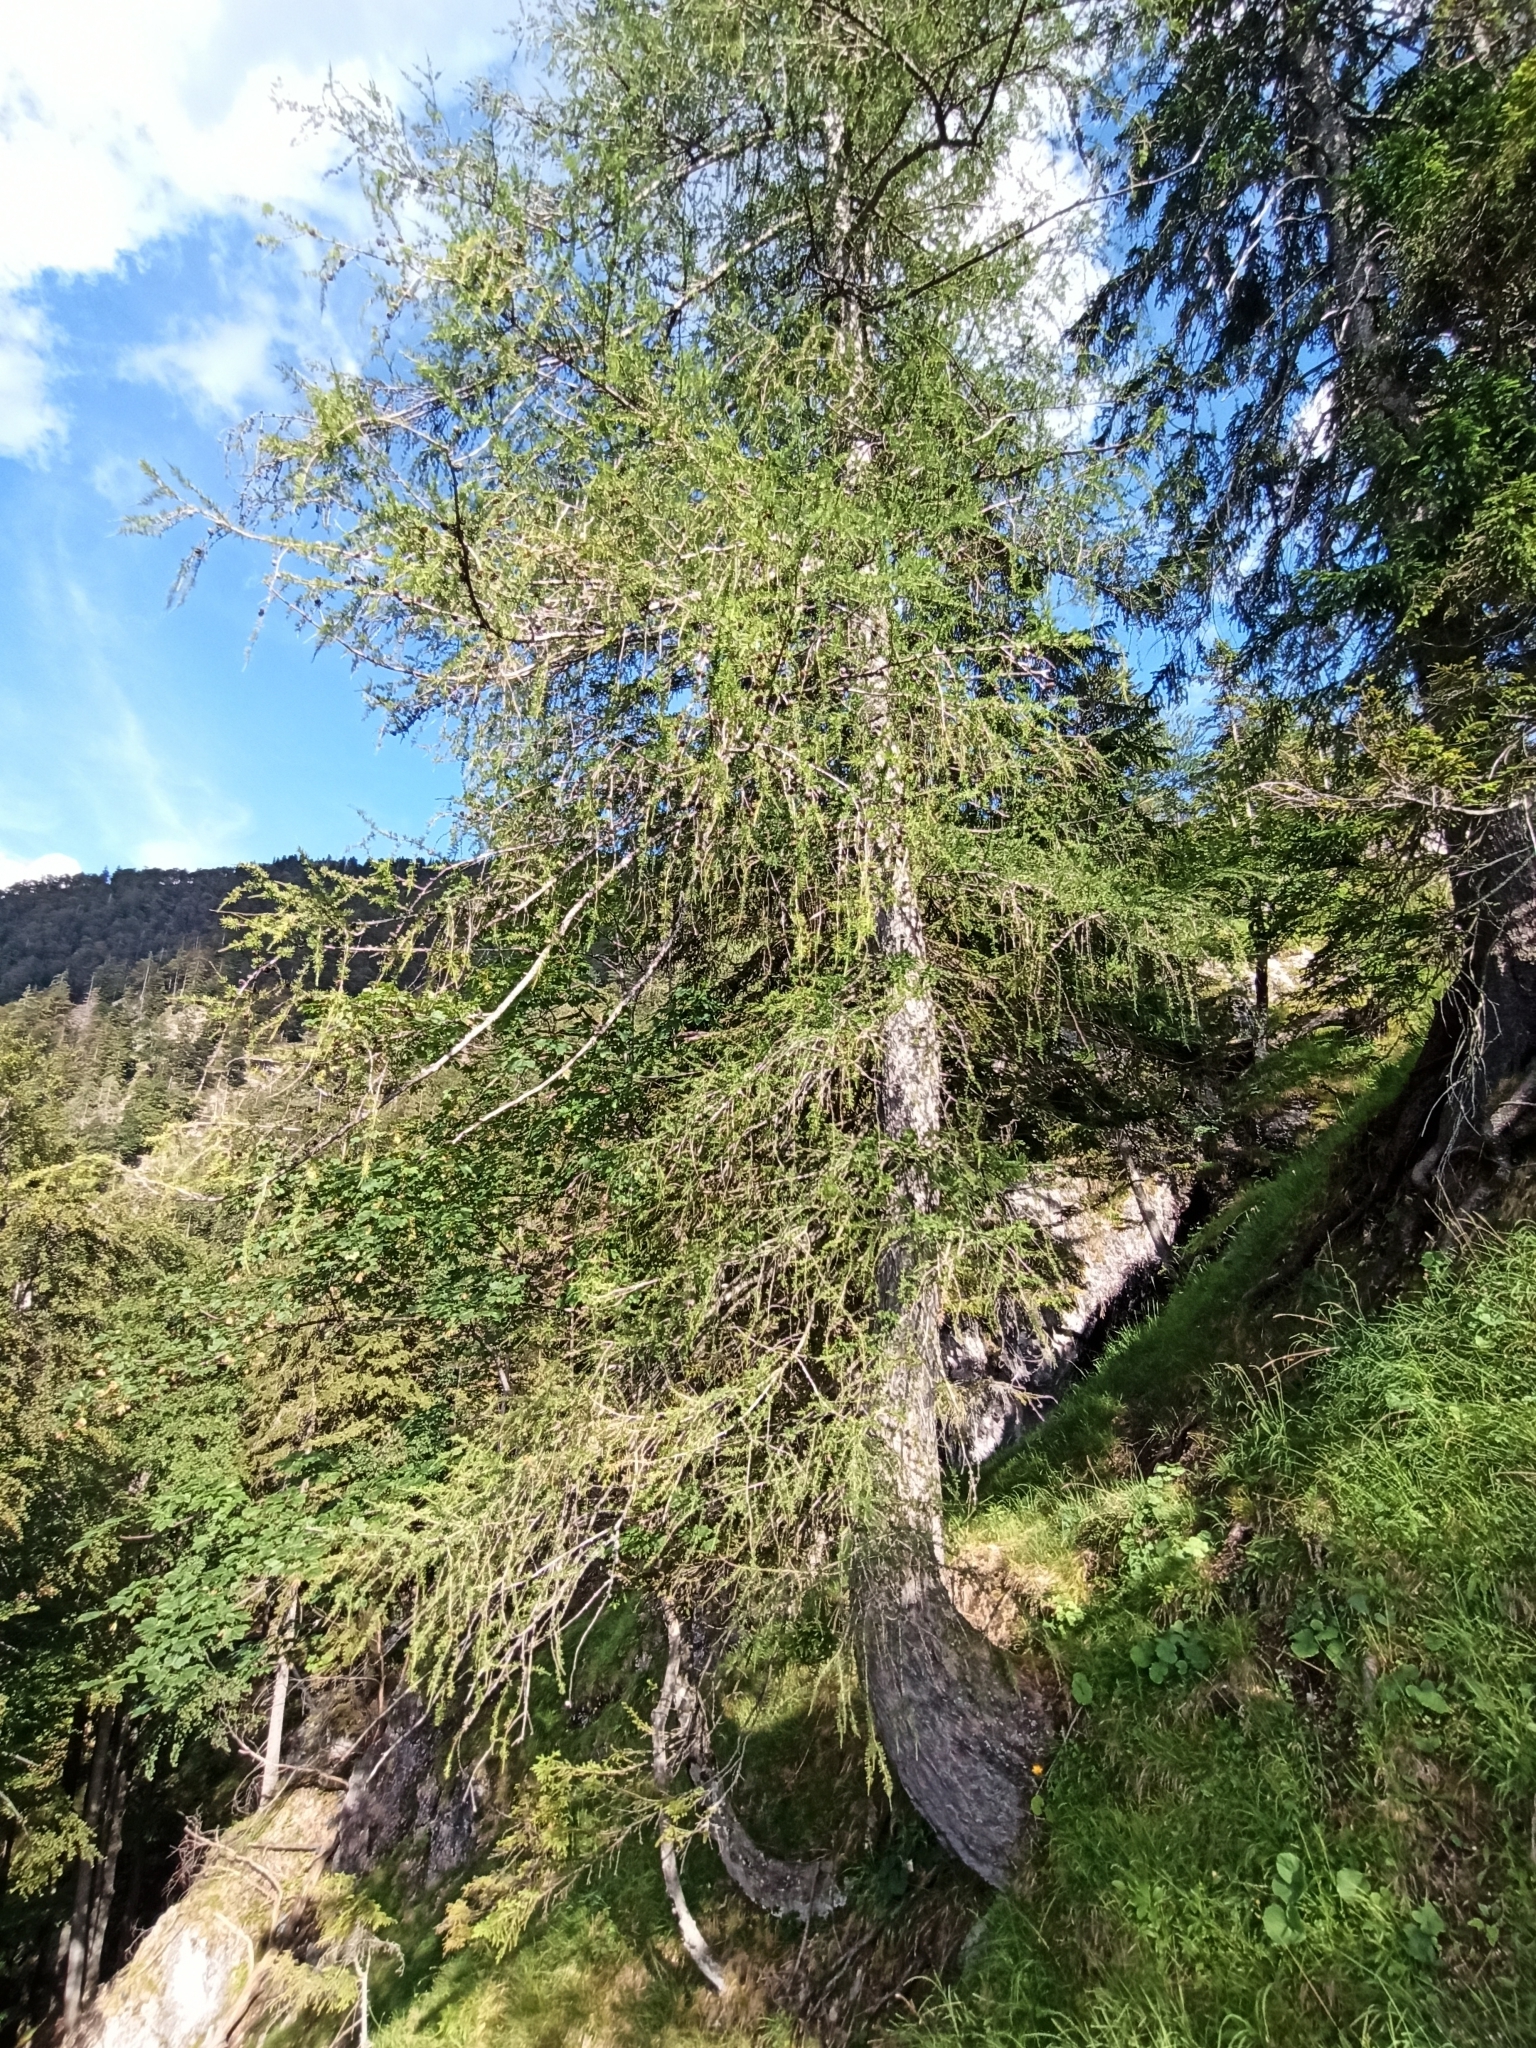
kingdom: Plantae
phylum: Tracheophyta
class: Pinopsida
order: Pinales
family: Pinaceae
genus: Larix
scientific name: Larix decidua
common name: European larch
